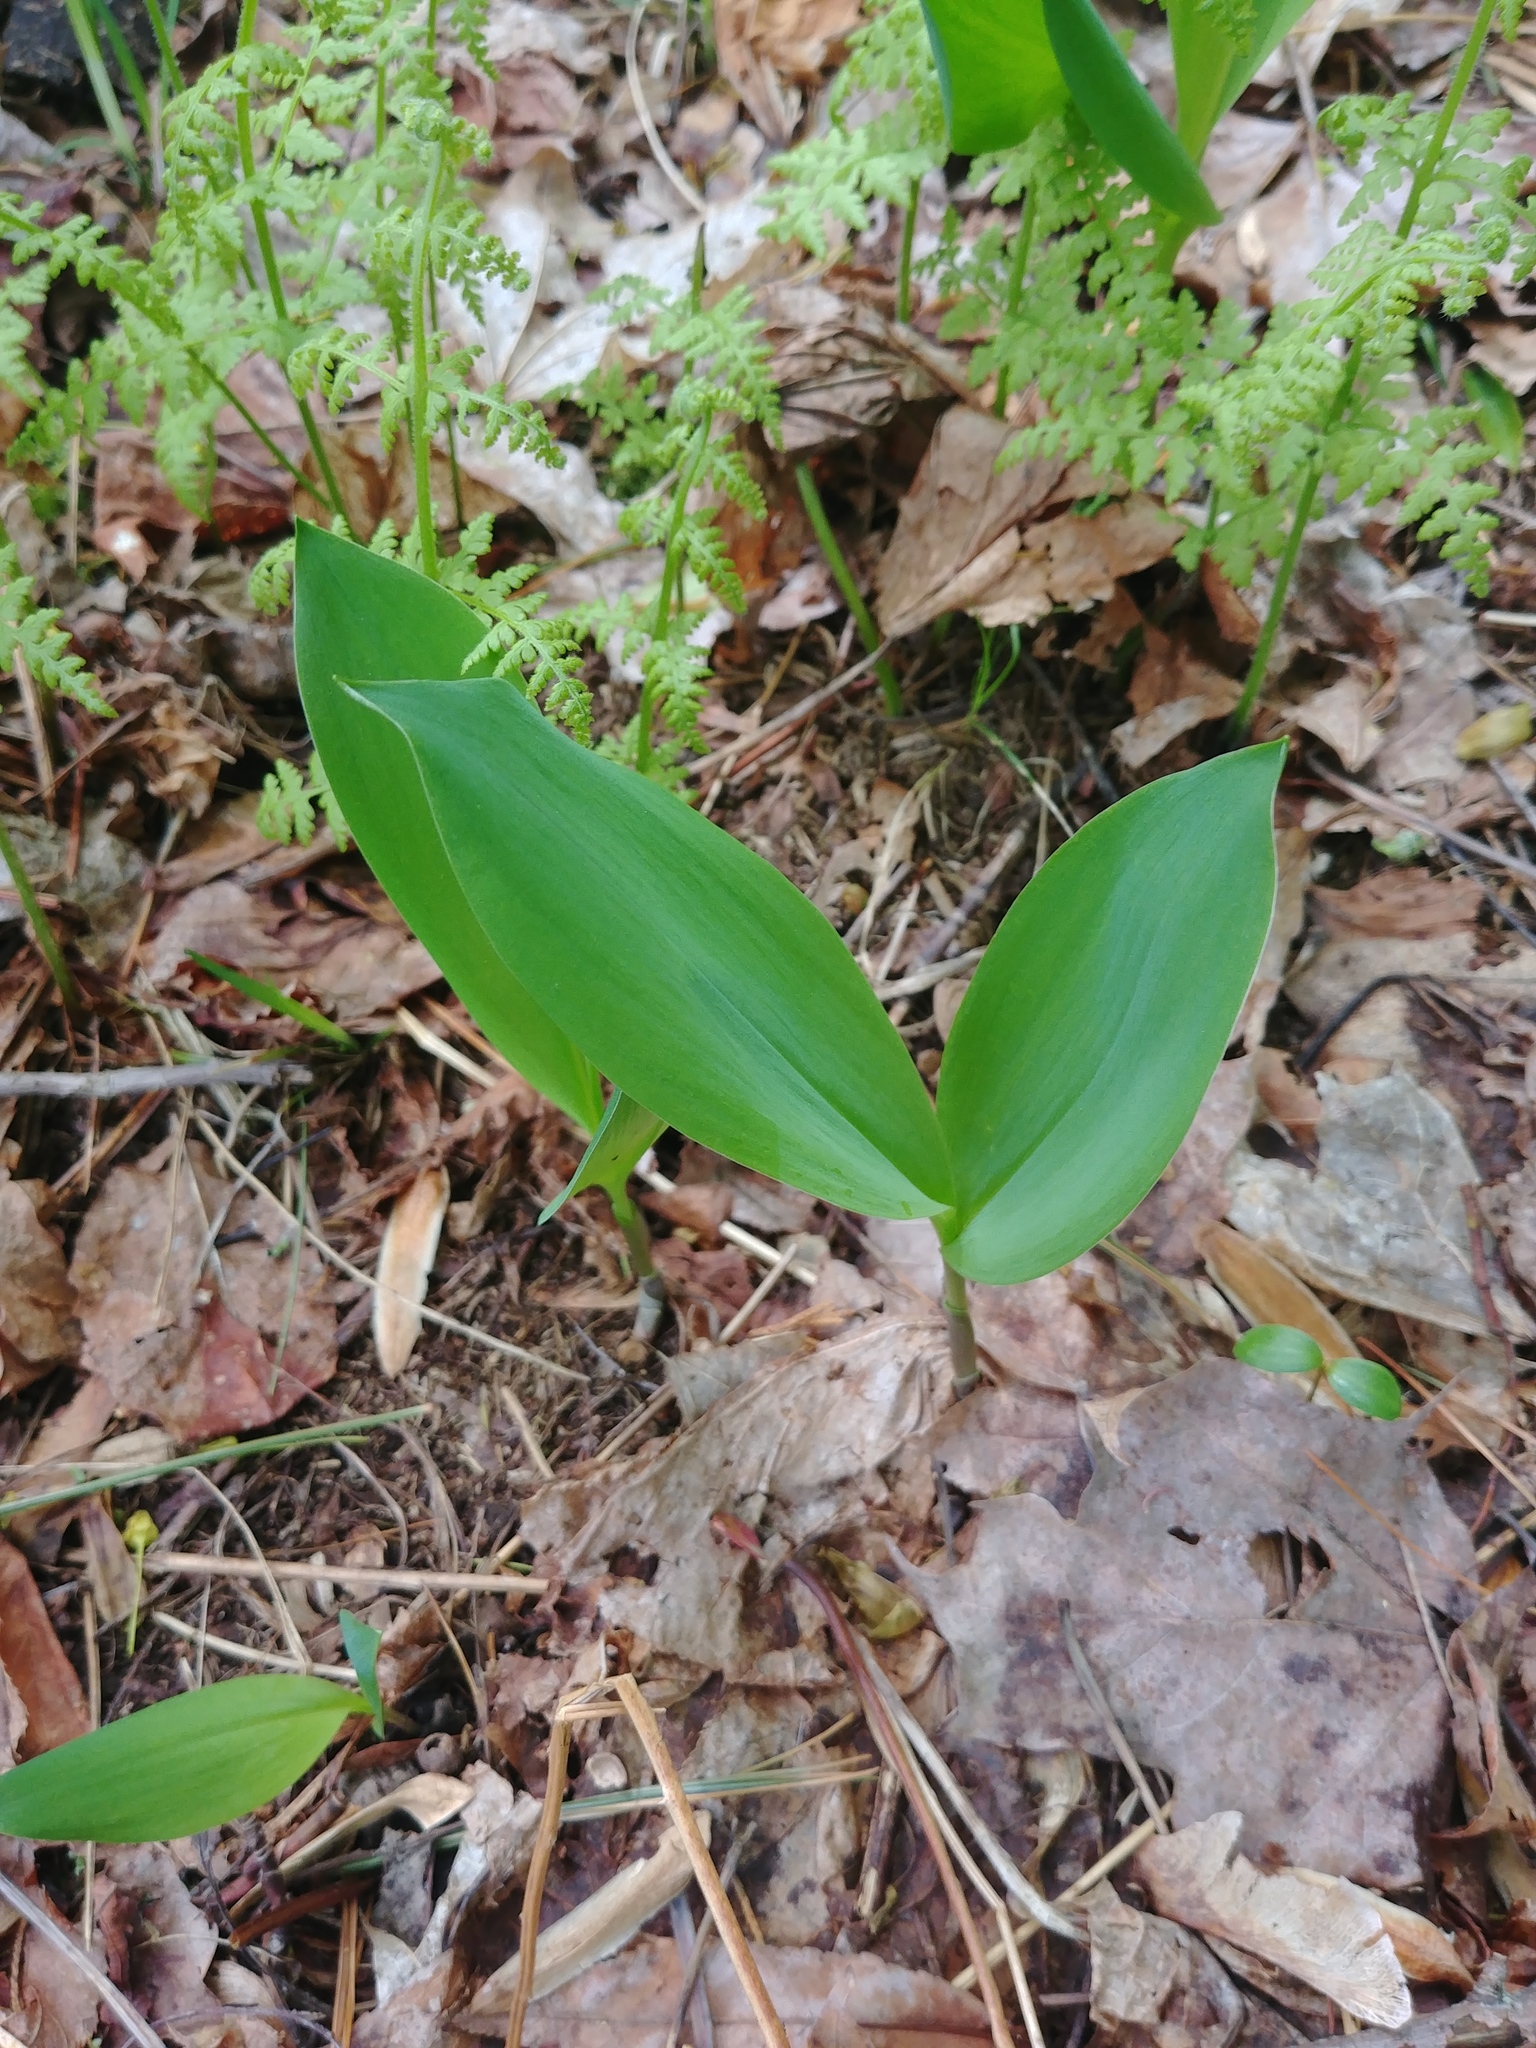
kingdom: Plantae
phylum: Tracheophyta
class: Liliopsida
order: Asparagales
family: Asparagaceae
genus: Convallaria
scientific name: Convallaria majalis
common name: Lily-of-the-valley
